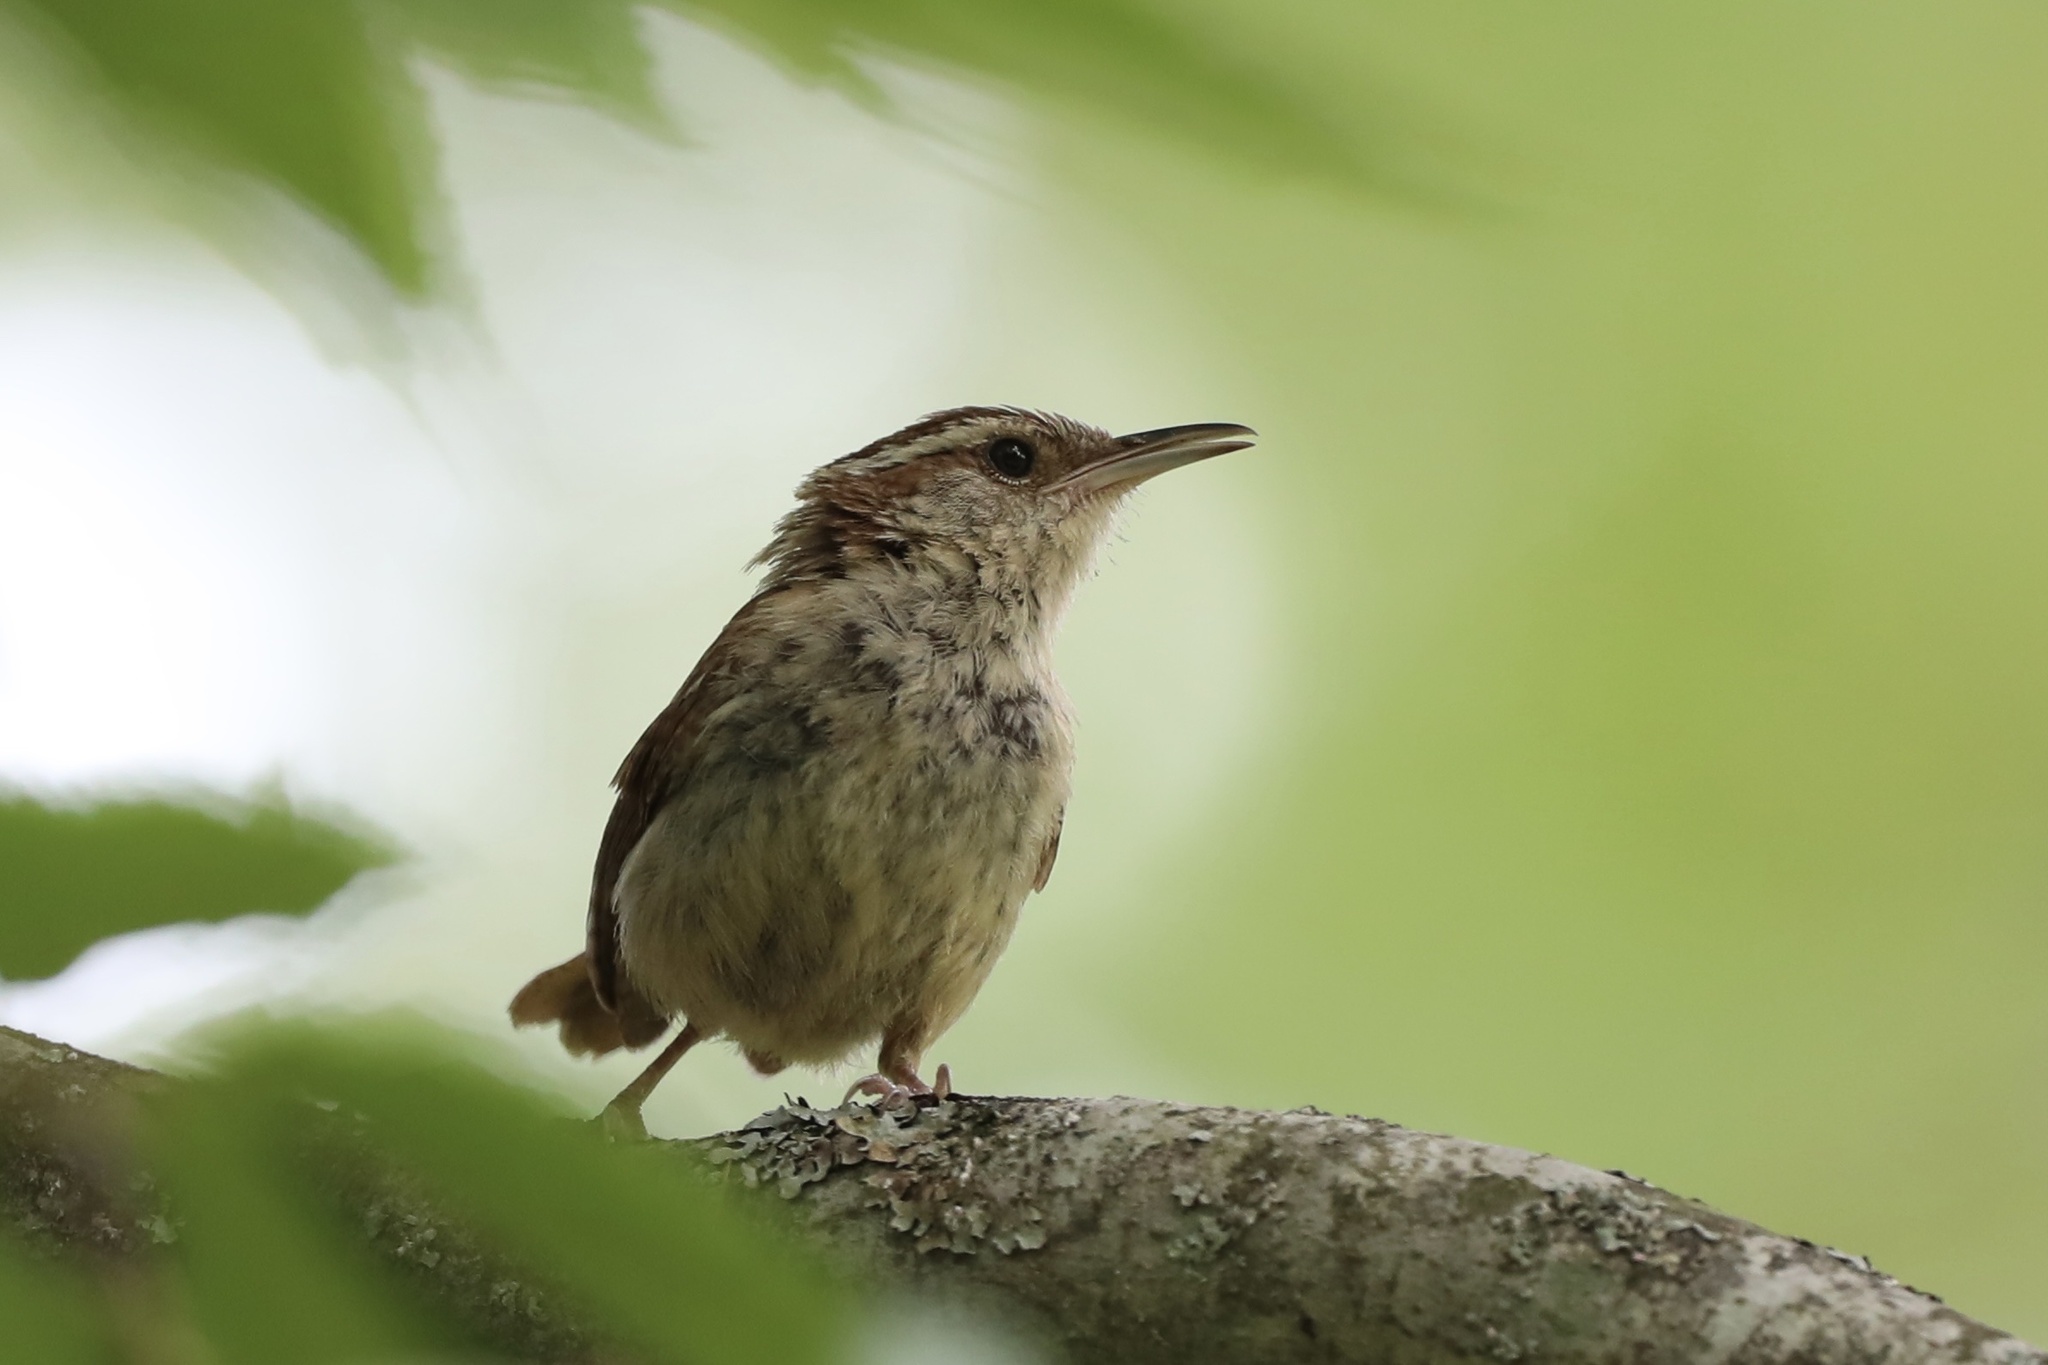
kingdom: Animalia
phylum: Chordata
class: Aves
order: Passeriformes
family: Troglodytidae
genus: Thryothorus
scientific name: Thryothorus ludovicianus
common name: Carolina wren
